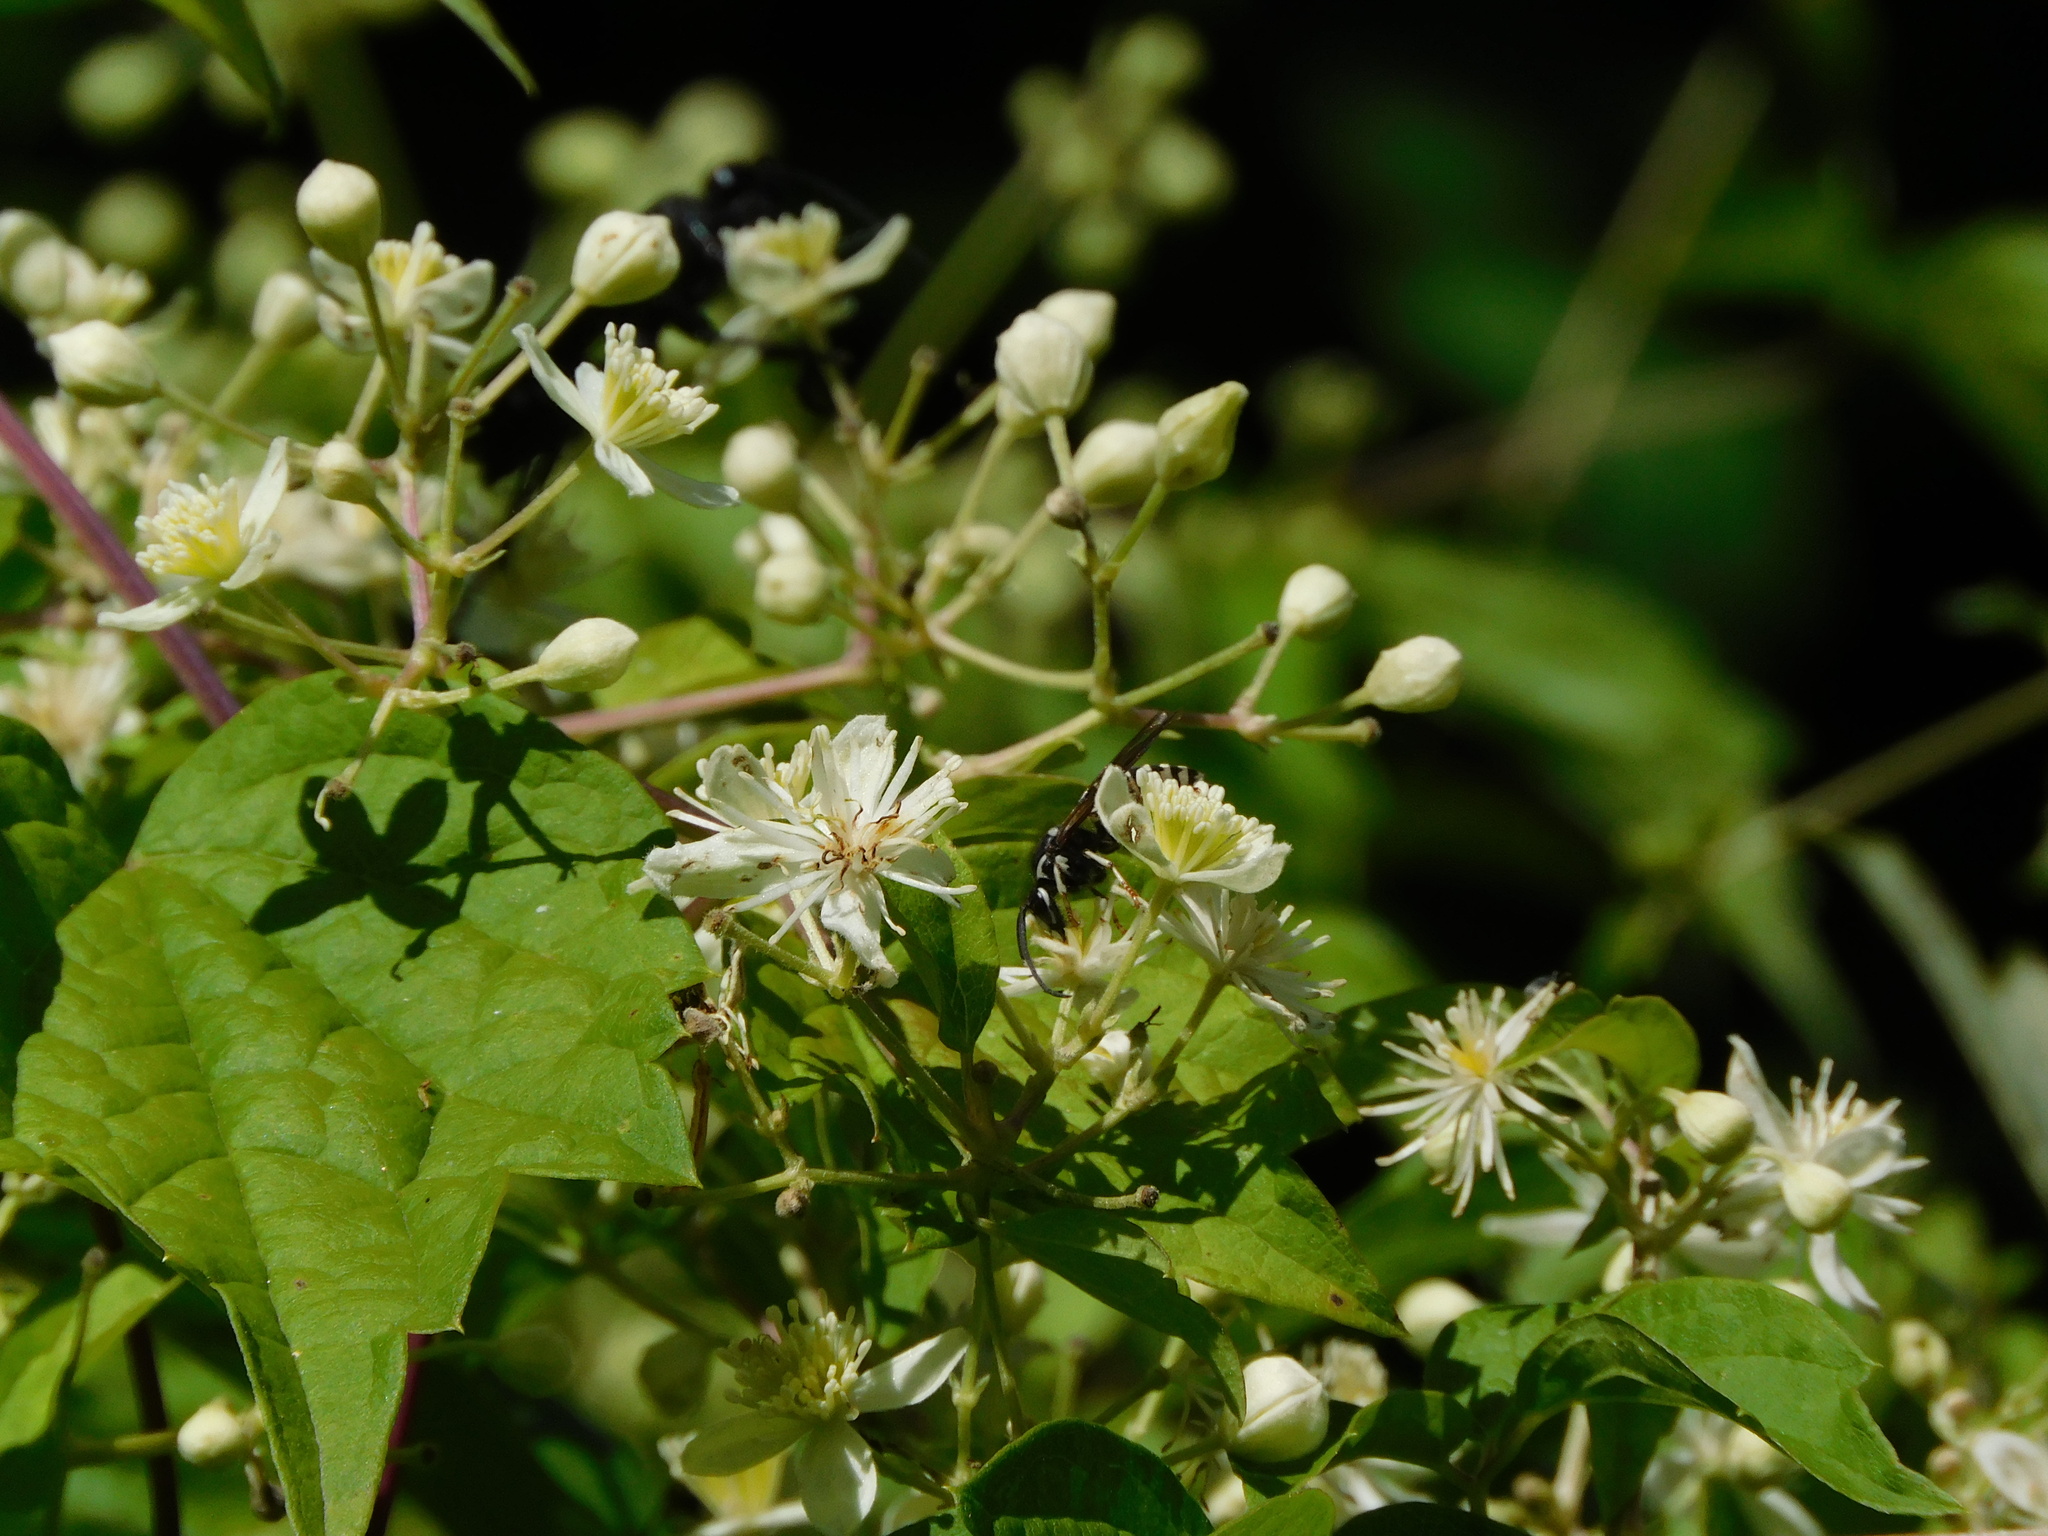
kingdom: Animalia
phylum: Arthropoda
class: Insecta
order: Hymenoptera
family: Vespidae
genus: Dolichovespula
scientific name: Dolichovespula adulterina
